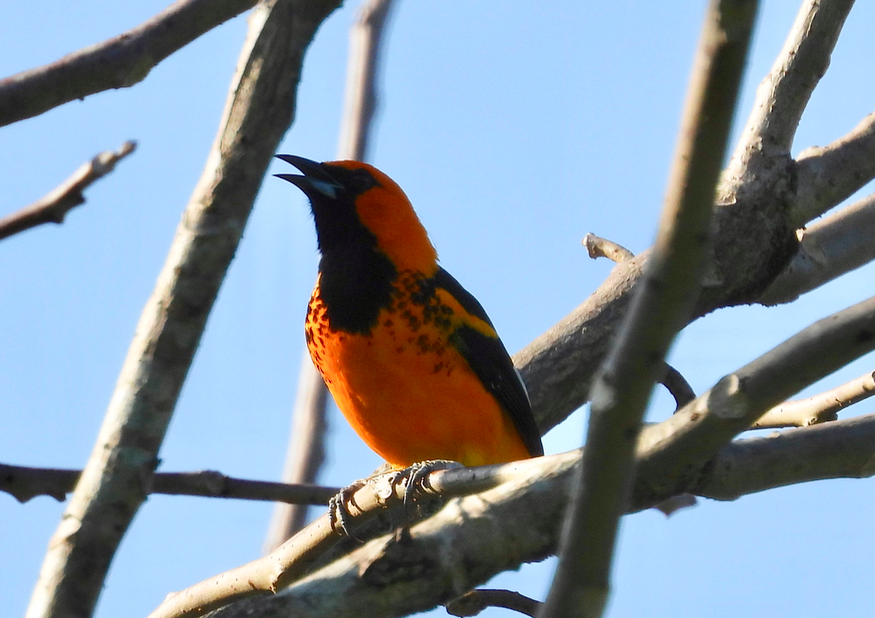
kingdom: Animalia
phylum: Chordata
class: Aves
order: Passeriformes
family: Icteridae
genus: Icterus
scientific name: Icterus pectoralis
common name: Spot-breasted oriole
